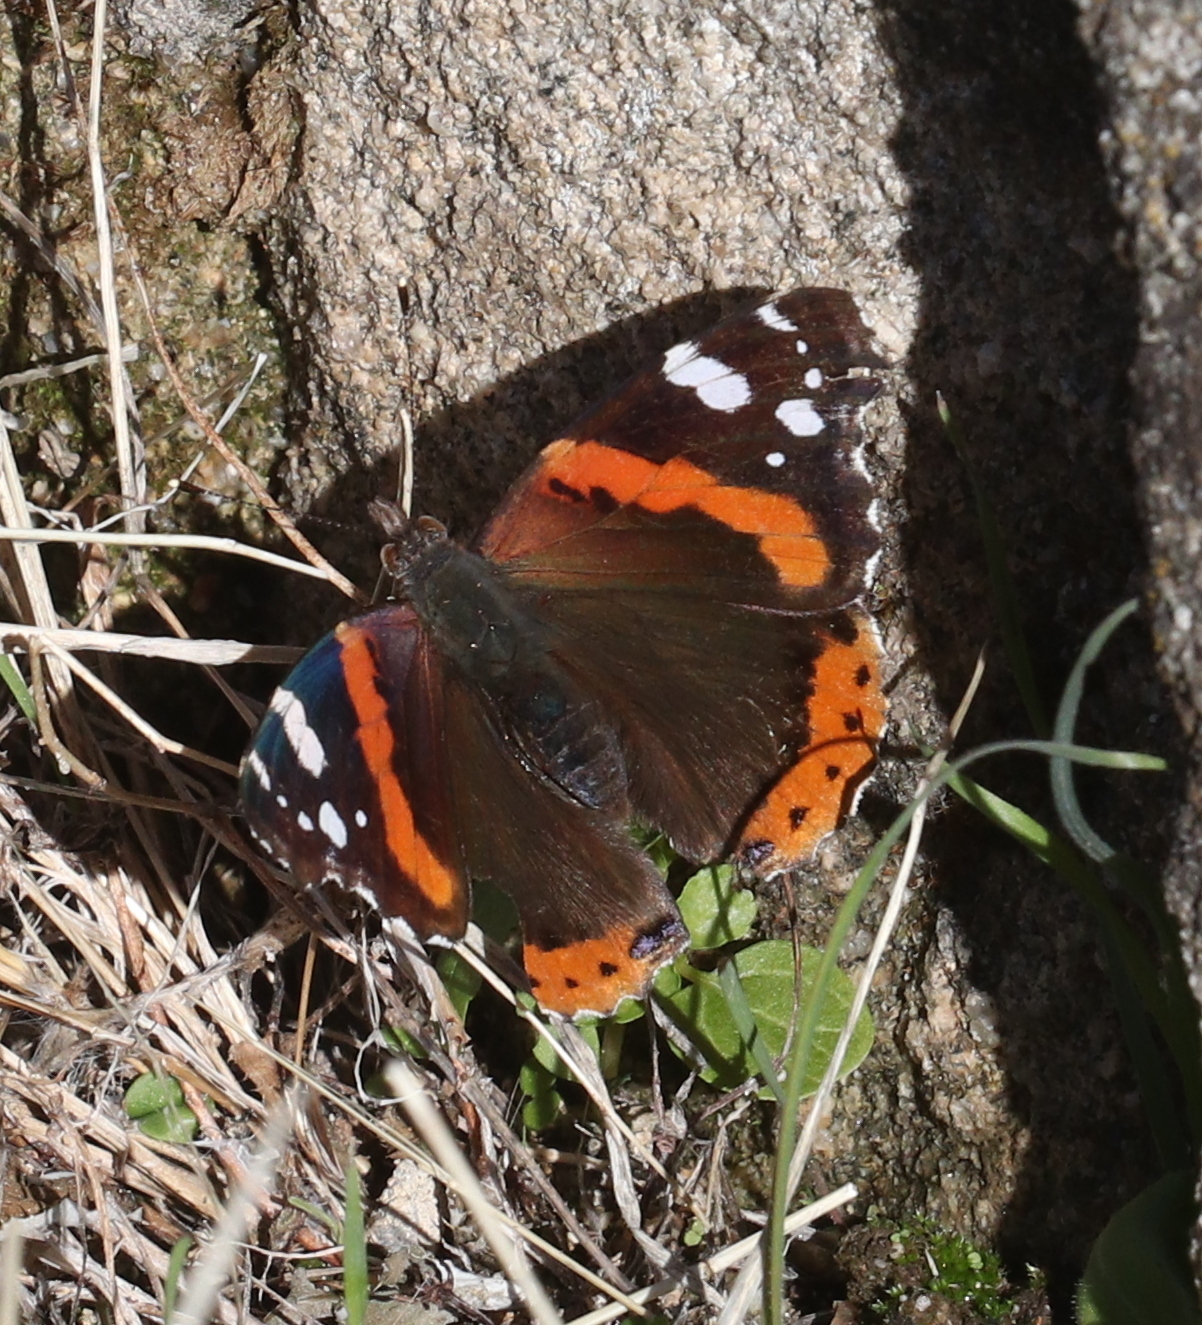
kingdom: Animalia
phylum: Arthropoda
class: Insecta
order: Lepidoptera
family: Nymphalidae
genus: Vanessa
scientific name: Vanessa atalanta
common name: Red admiral
